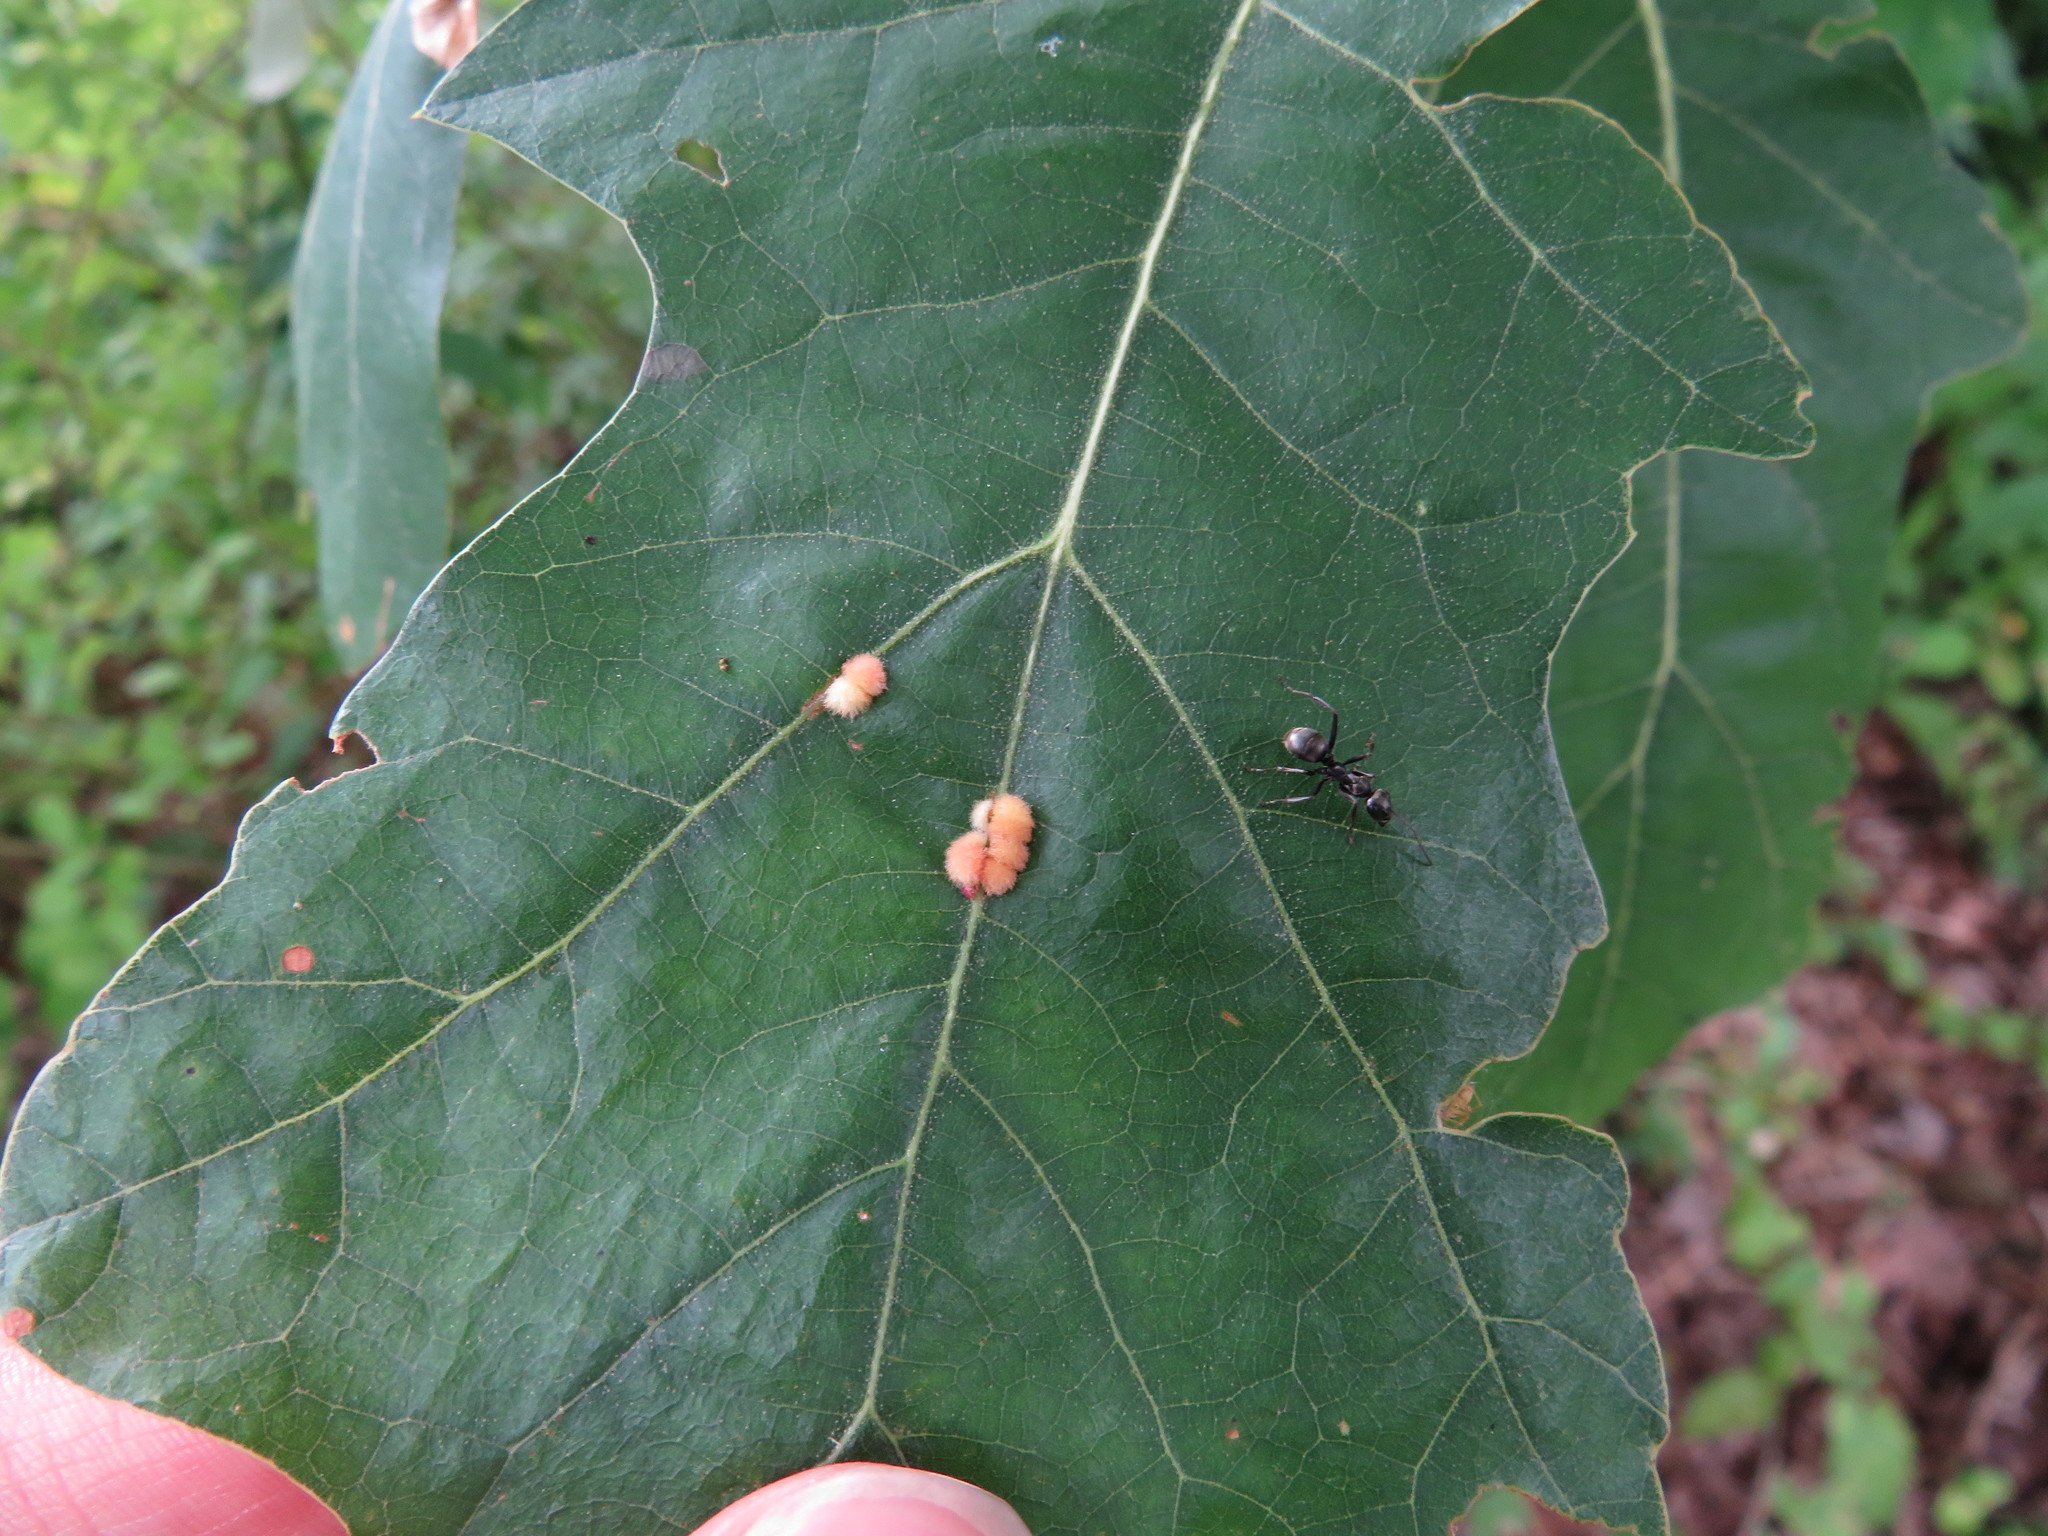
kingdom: Animalia
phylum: Arthropoda
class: Insecta
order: Hymenoptera
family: Cynipidae
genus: Callirhytis
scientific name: Callirhytis
